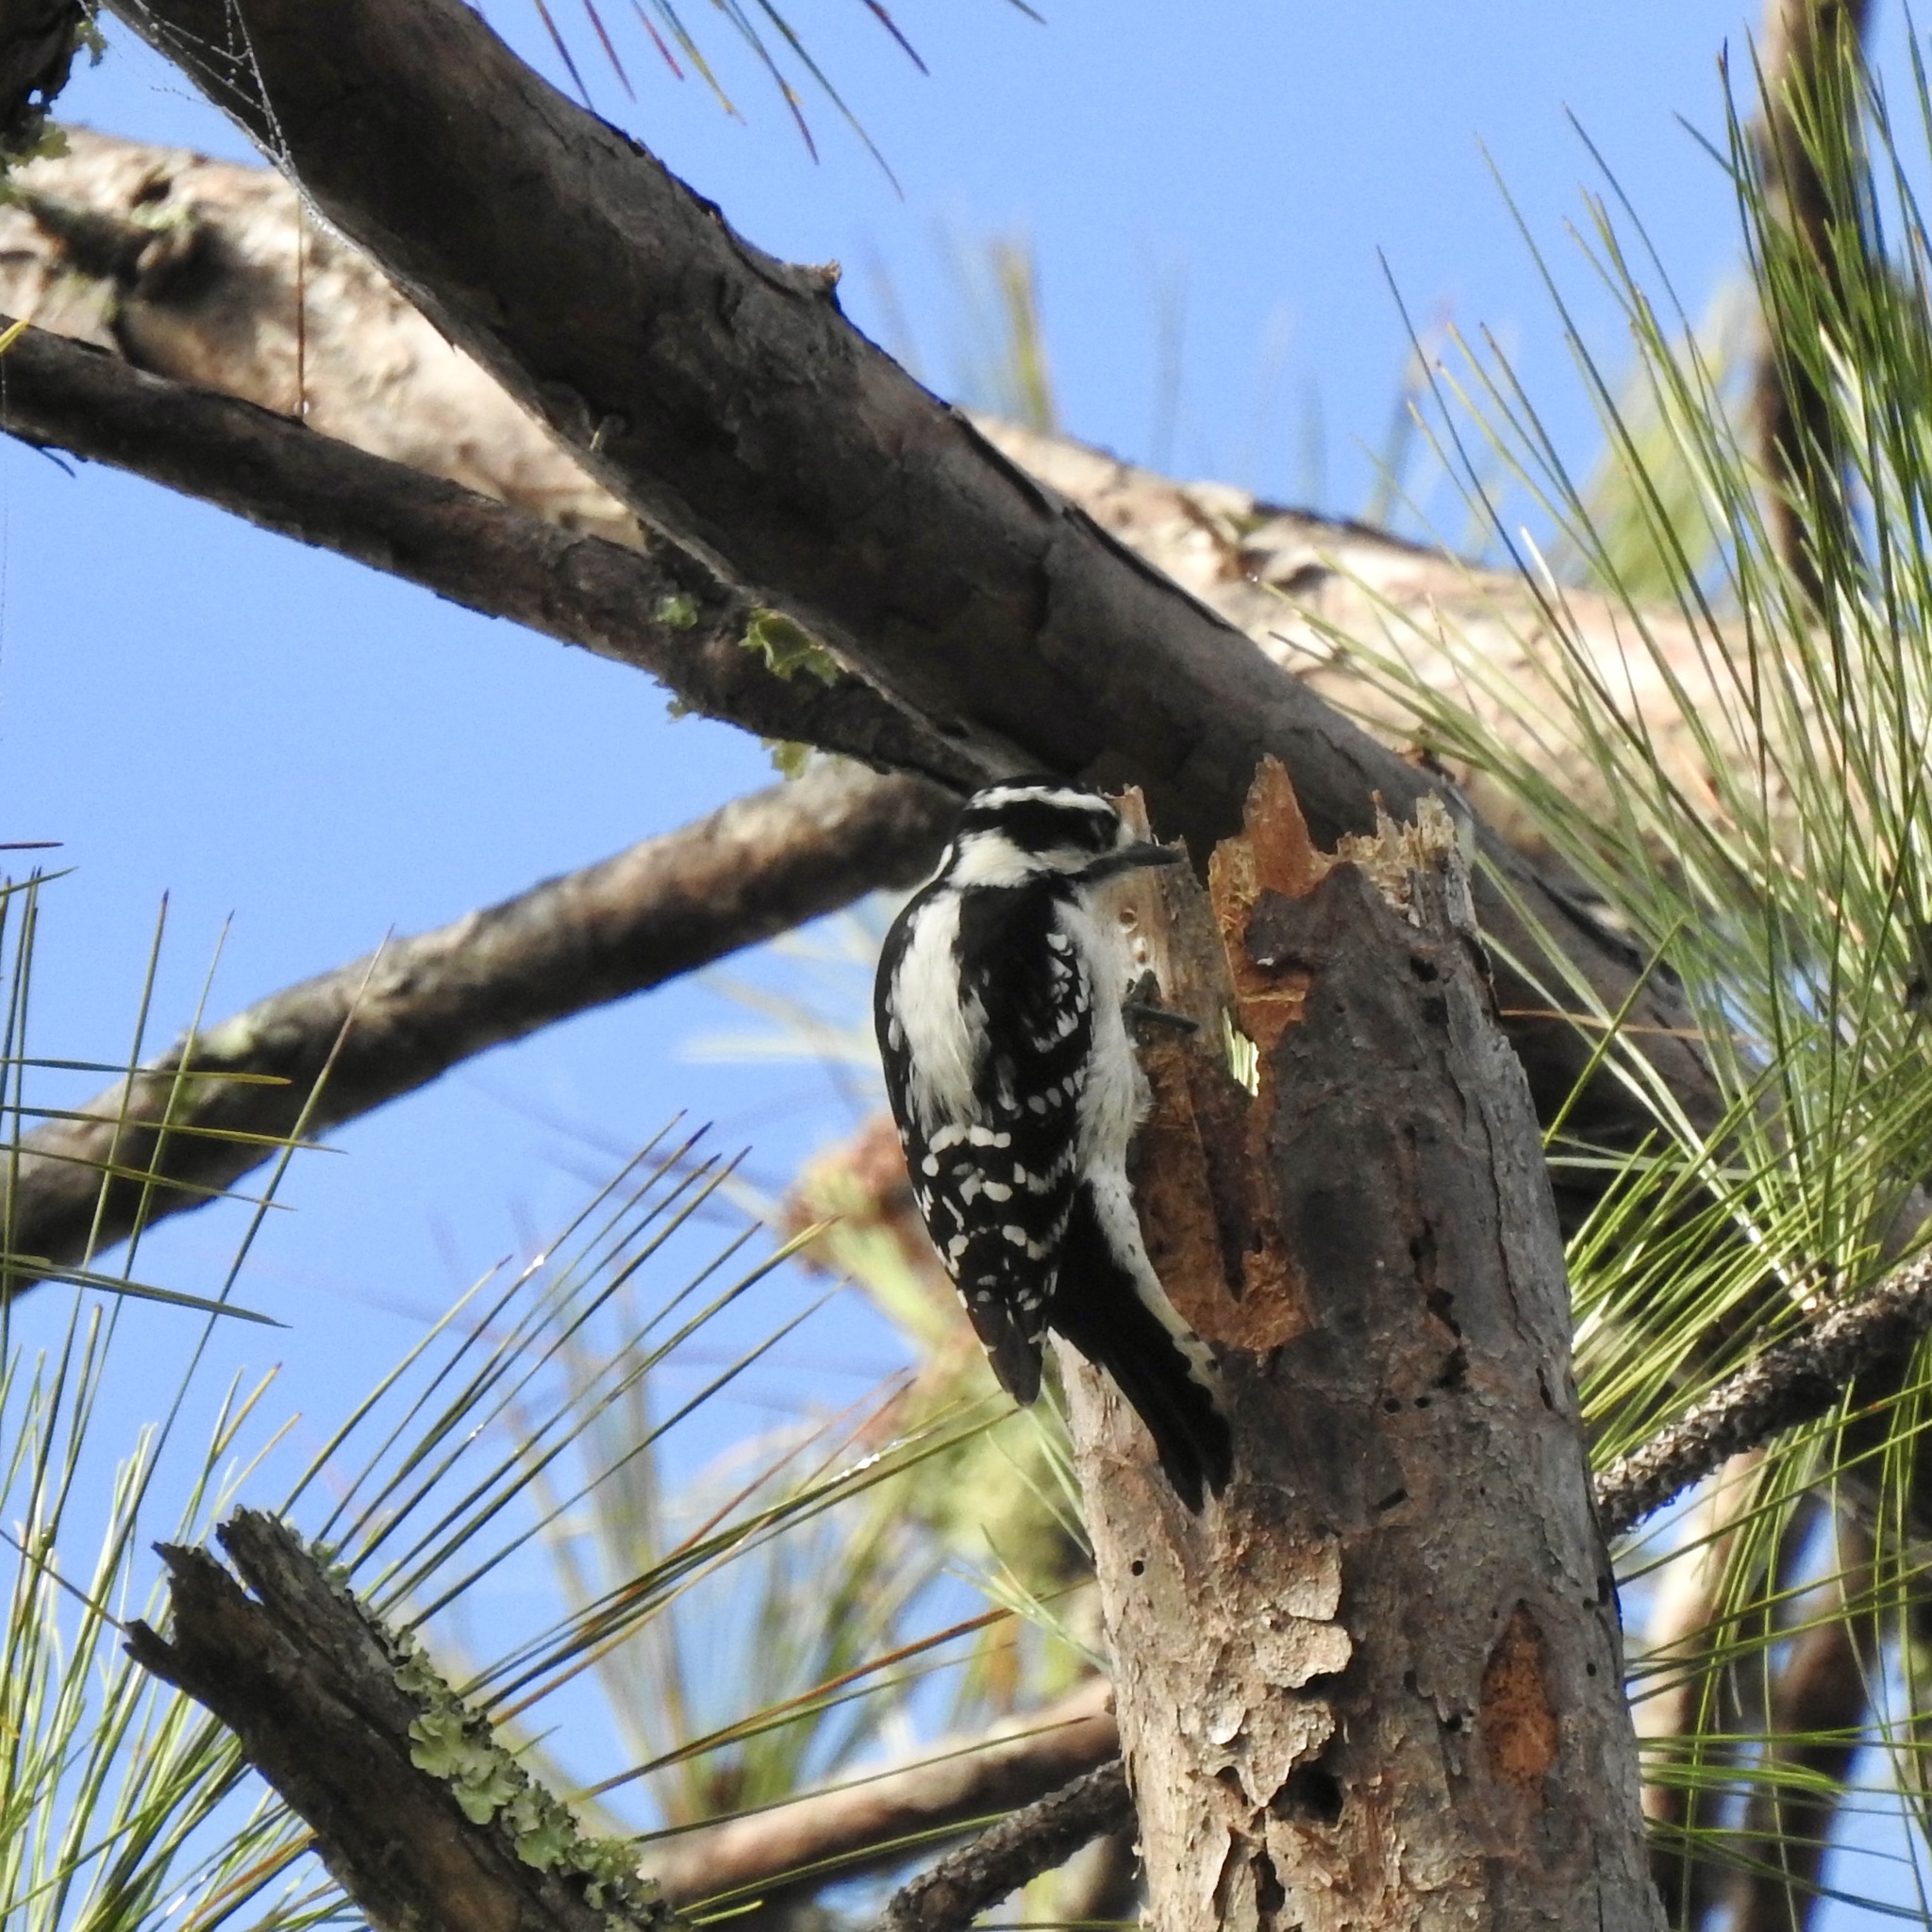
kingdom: Animalia
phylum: Chordata
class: Aves
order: Piciformes
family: Picidae
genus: Dryobates
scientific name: Dryobates pubescens
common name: Downy woodpecker
